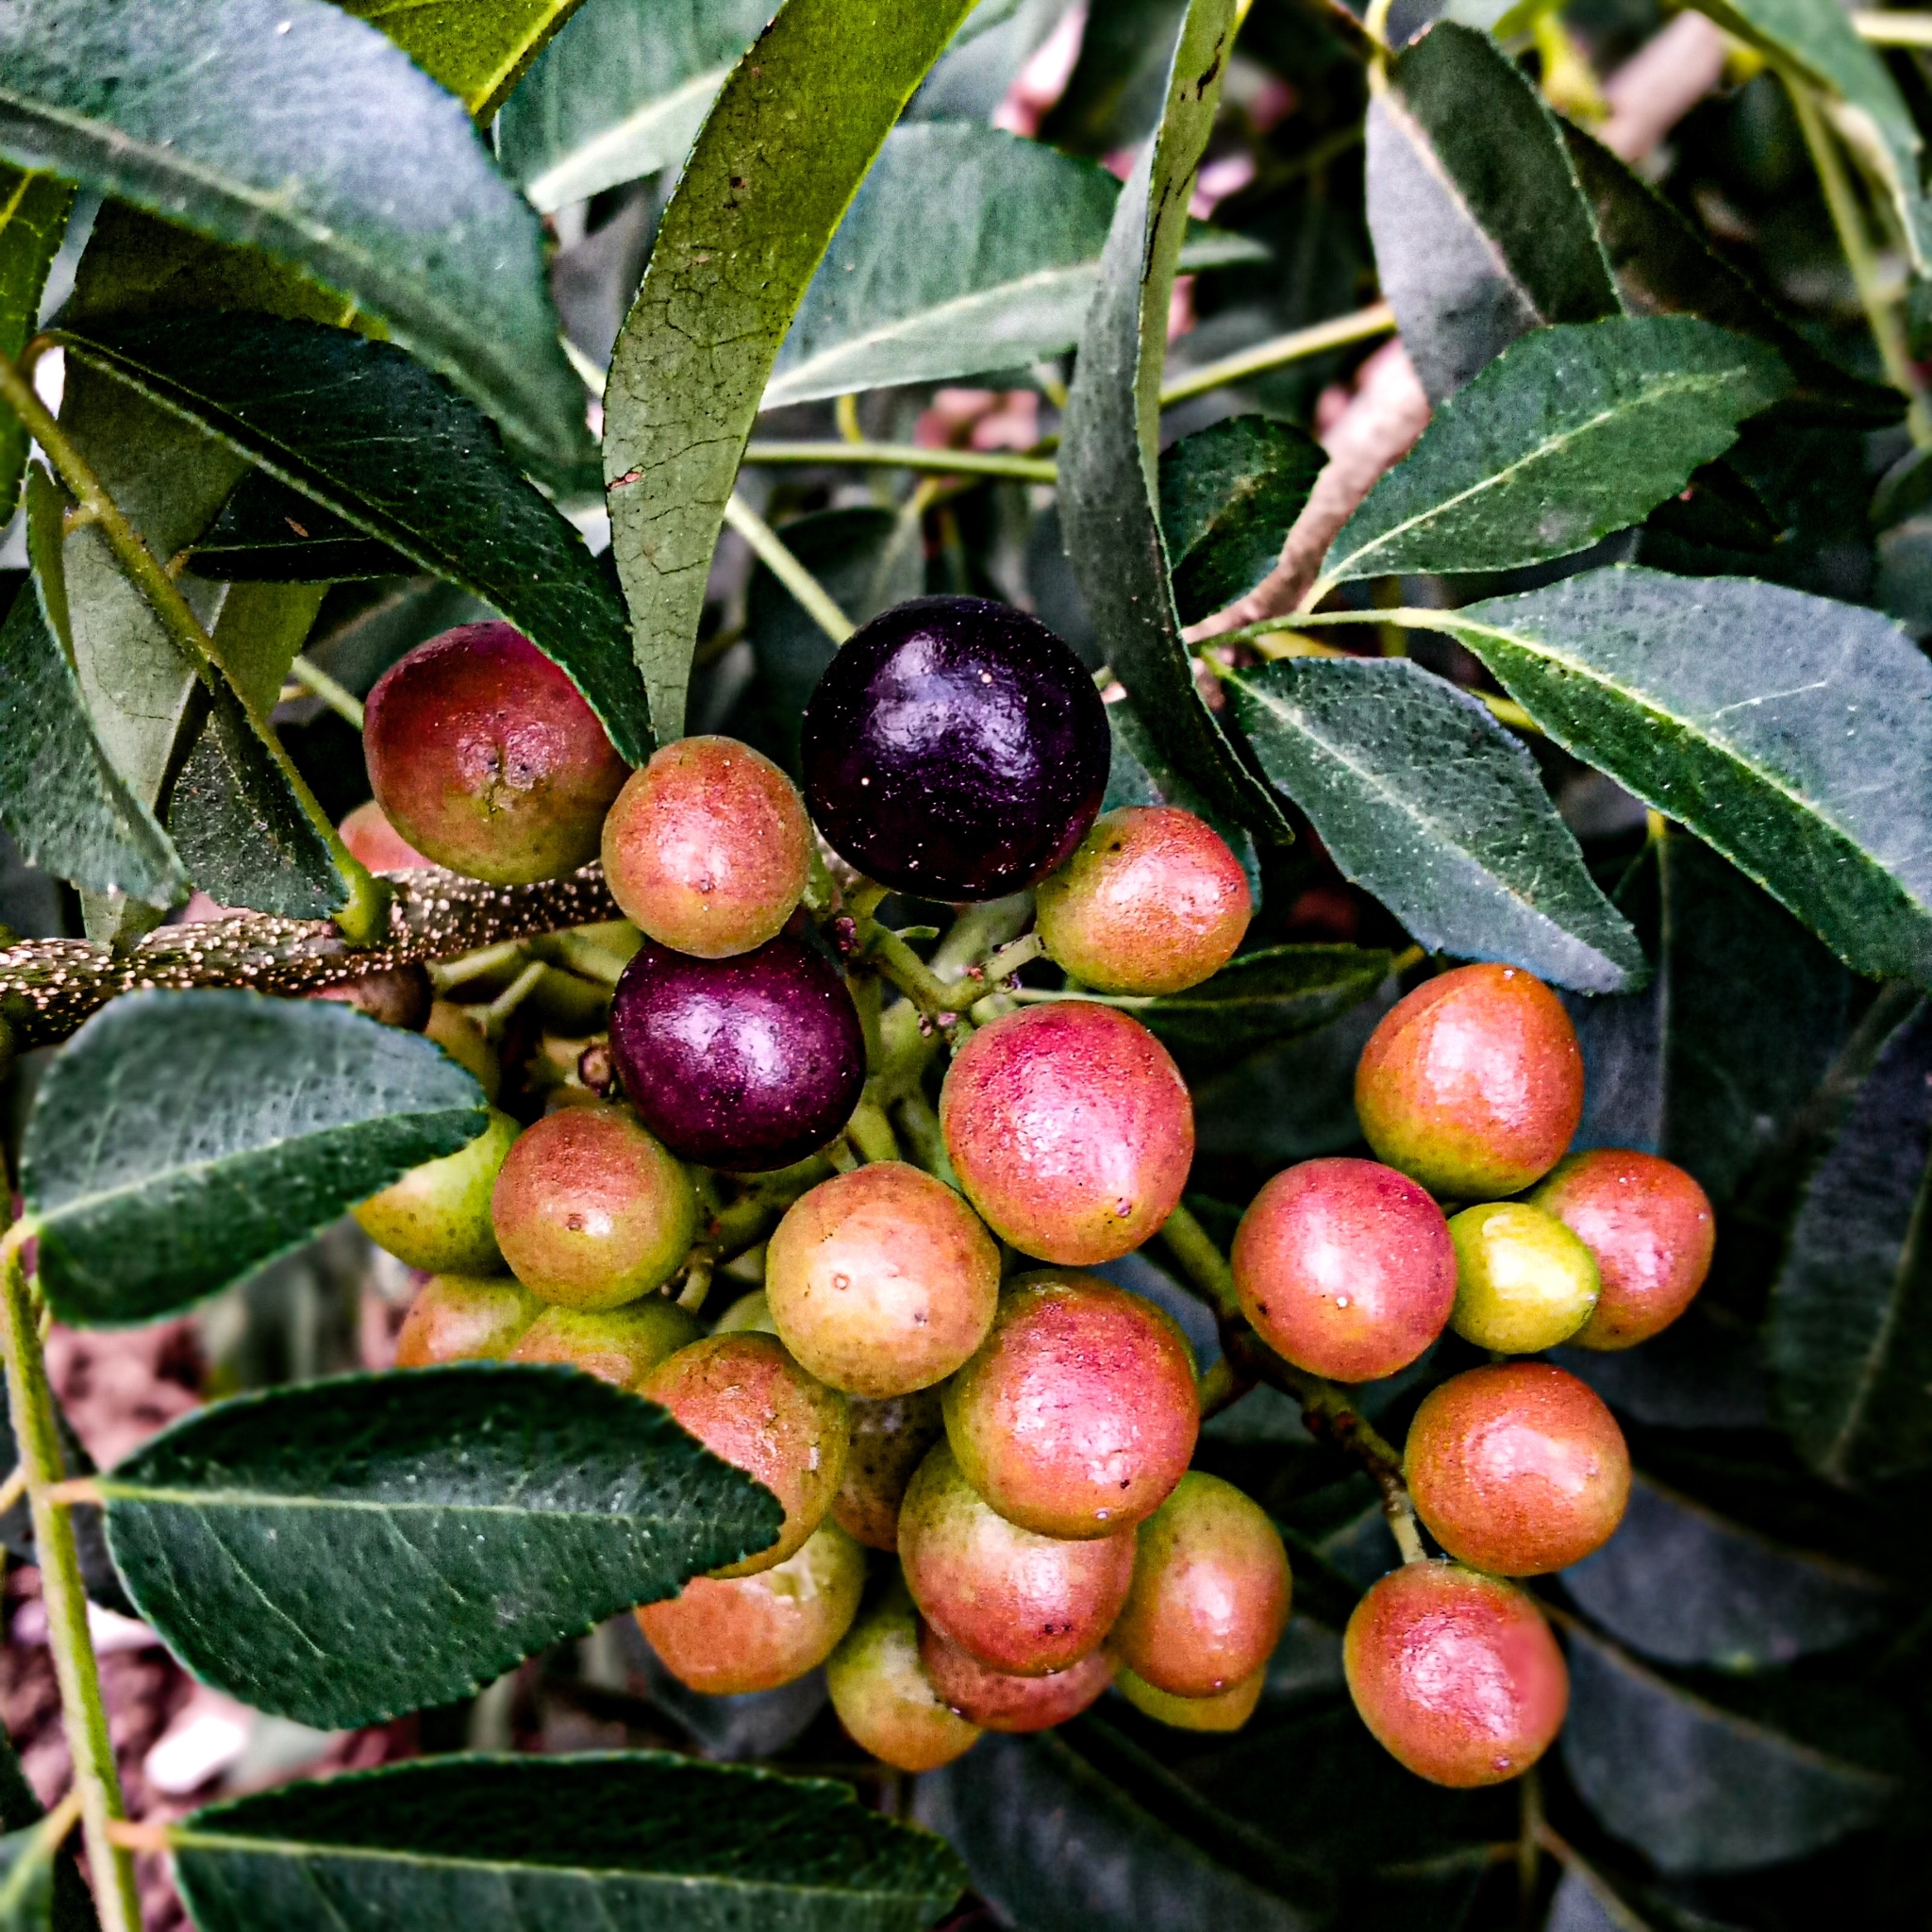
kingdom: Plantae
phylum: Tracheophyta
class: Magnoliopsida
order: Sapindales
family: Rutaceae
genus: Murraya
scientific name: Murraya koenigii
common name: Curry-plant
